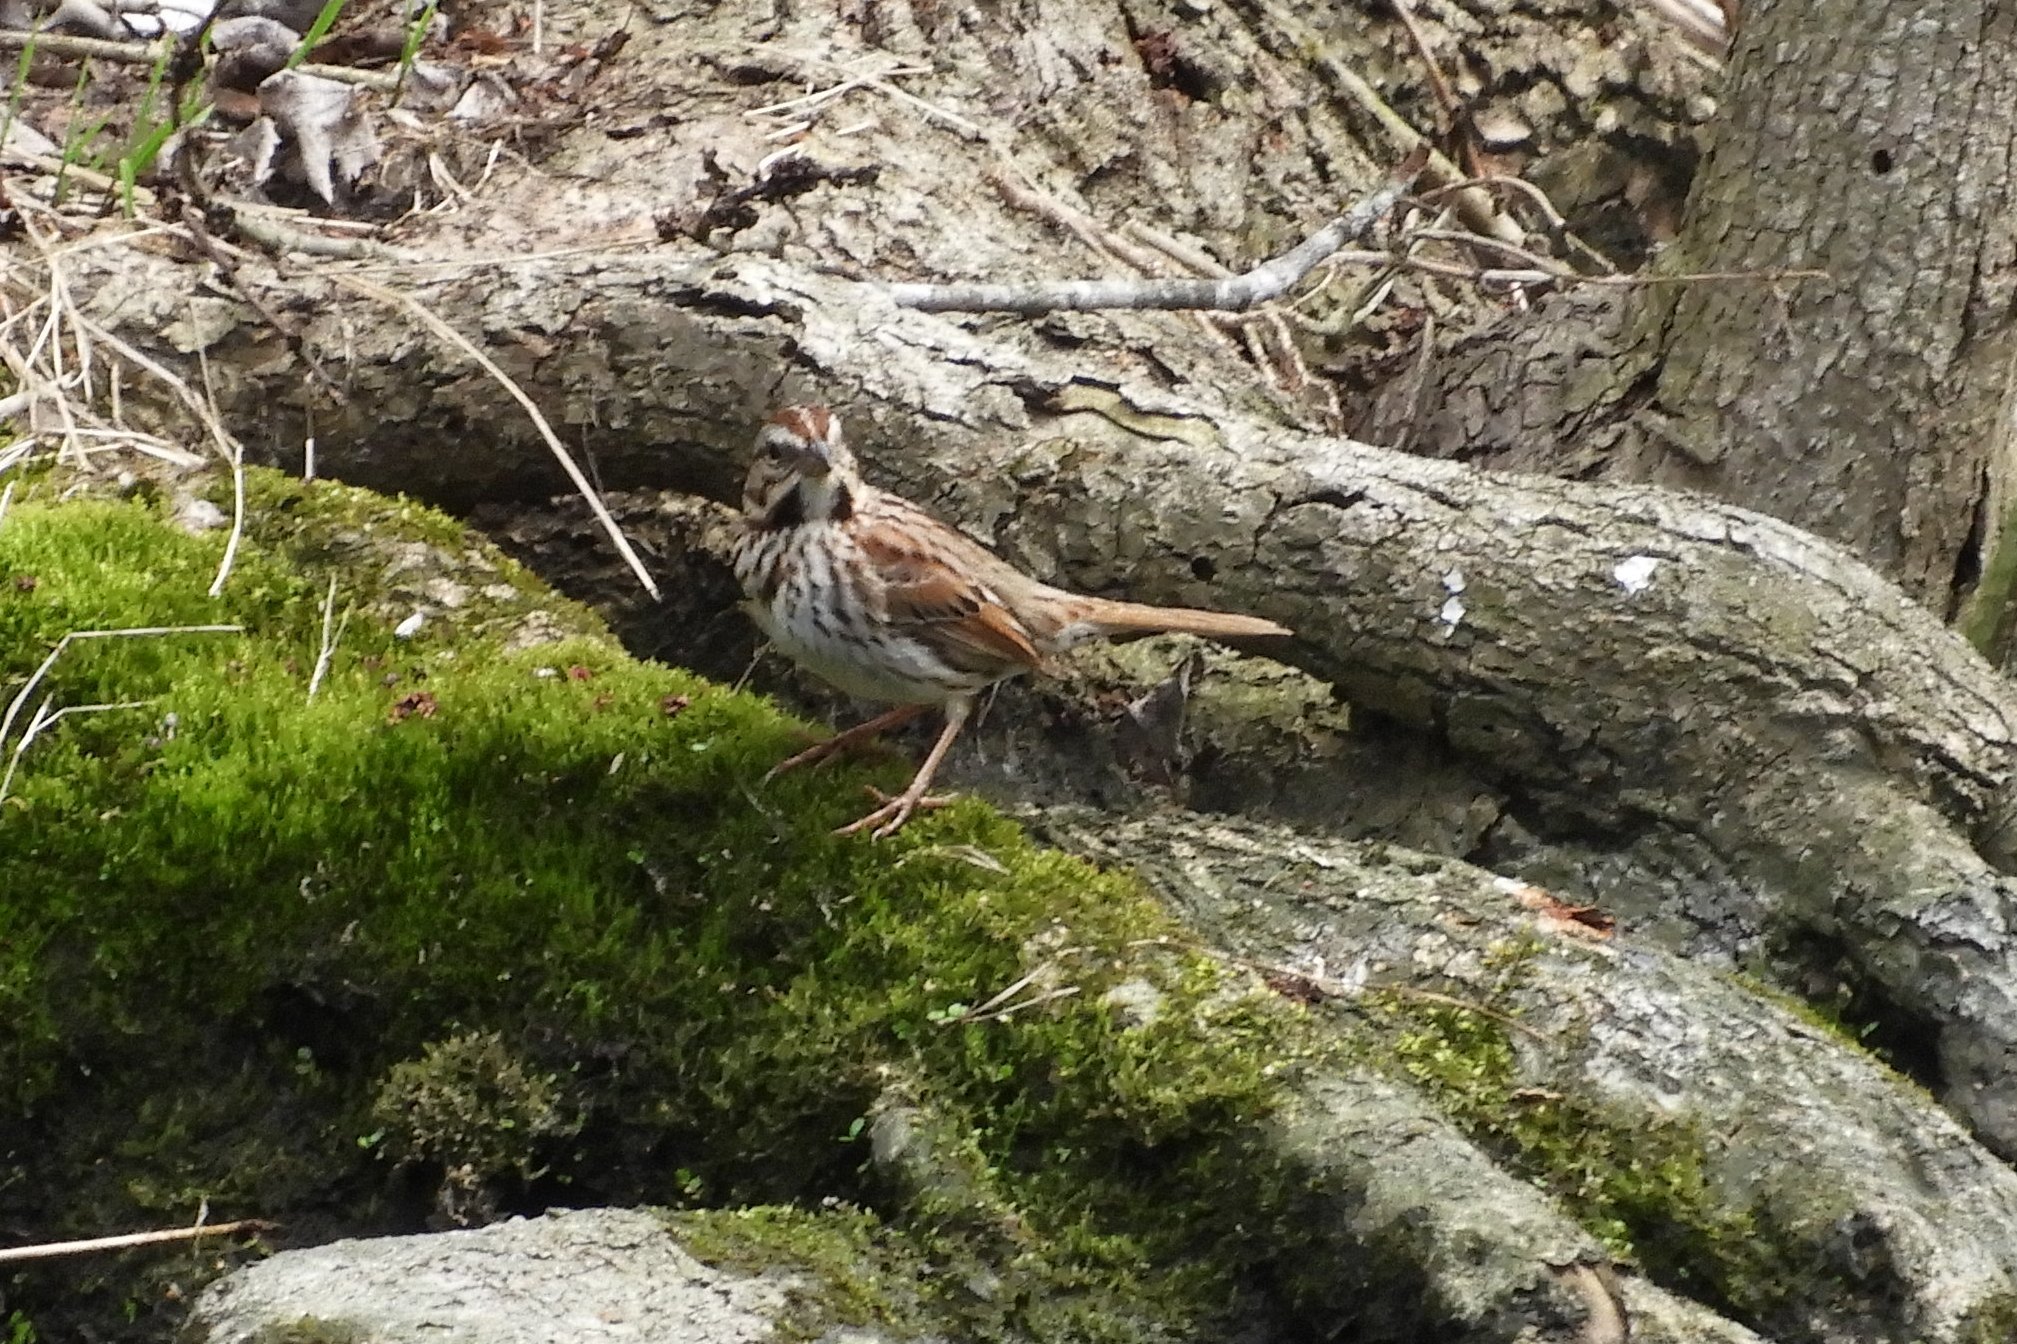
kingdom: Animalia
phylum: Chordata
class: Aves
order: Passeriformes
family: Passerellidae
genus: Melospiza
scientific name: Melospiza melodia
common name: Song sparrow
